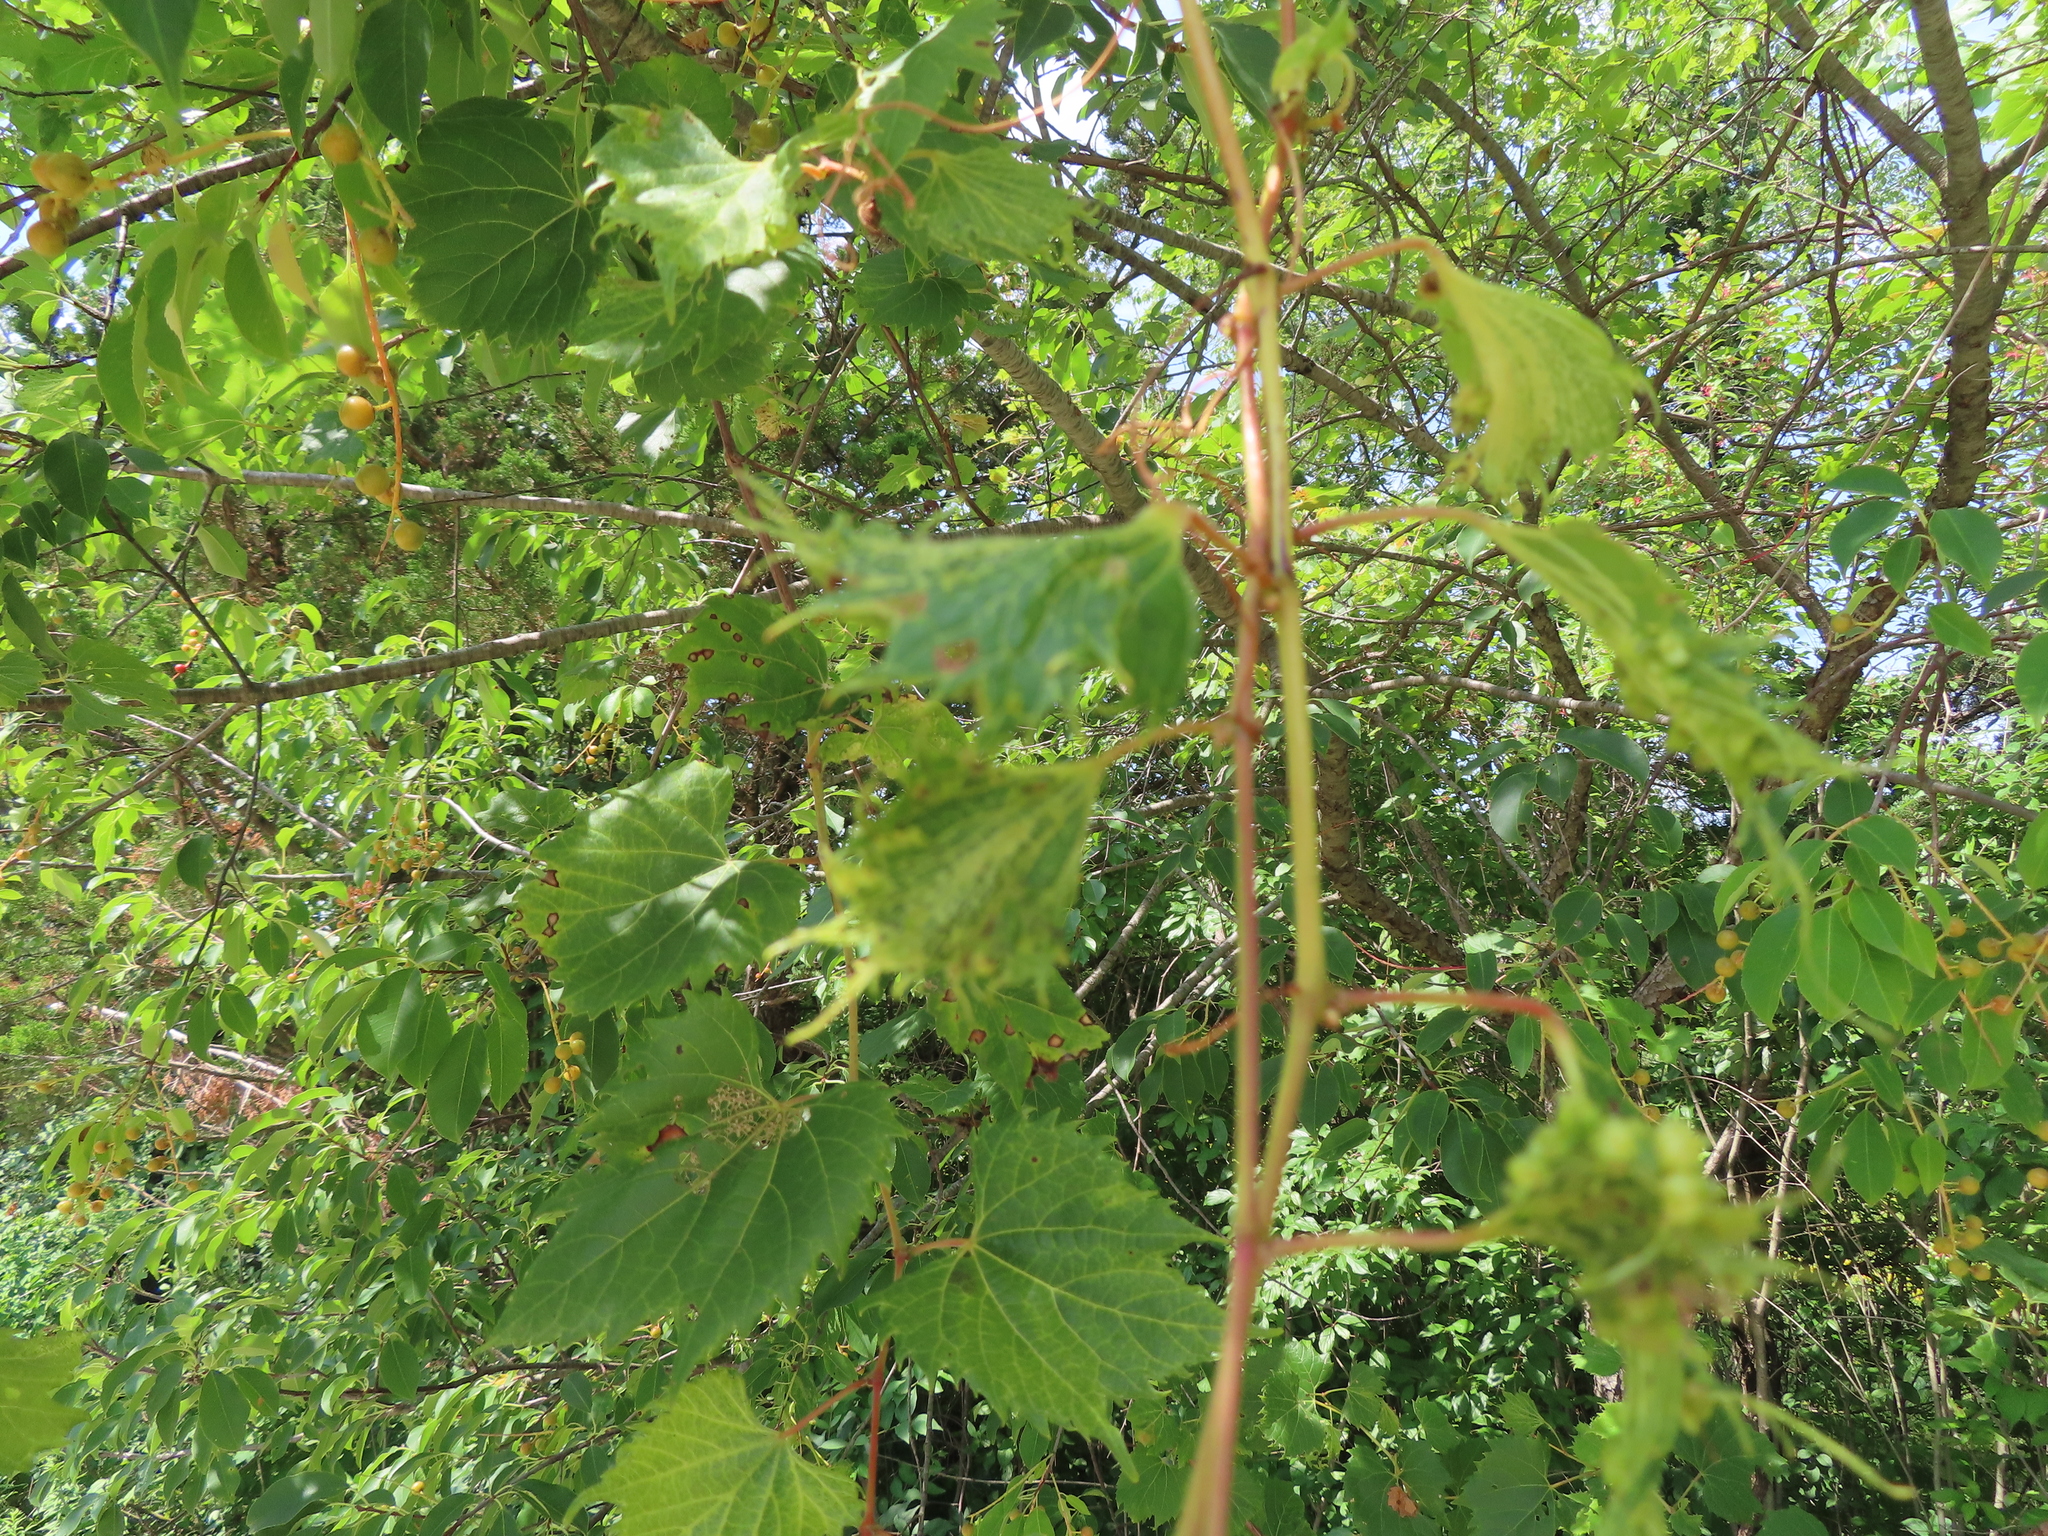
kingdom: Plantae
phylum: Tracheophyta
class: Magnoliopsida
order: Vitales
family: Vitaceae
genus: Vitis
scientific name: Vitis riparia
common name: Frost grape
